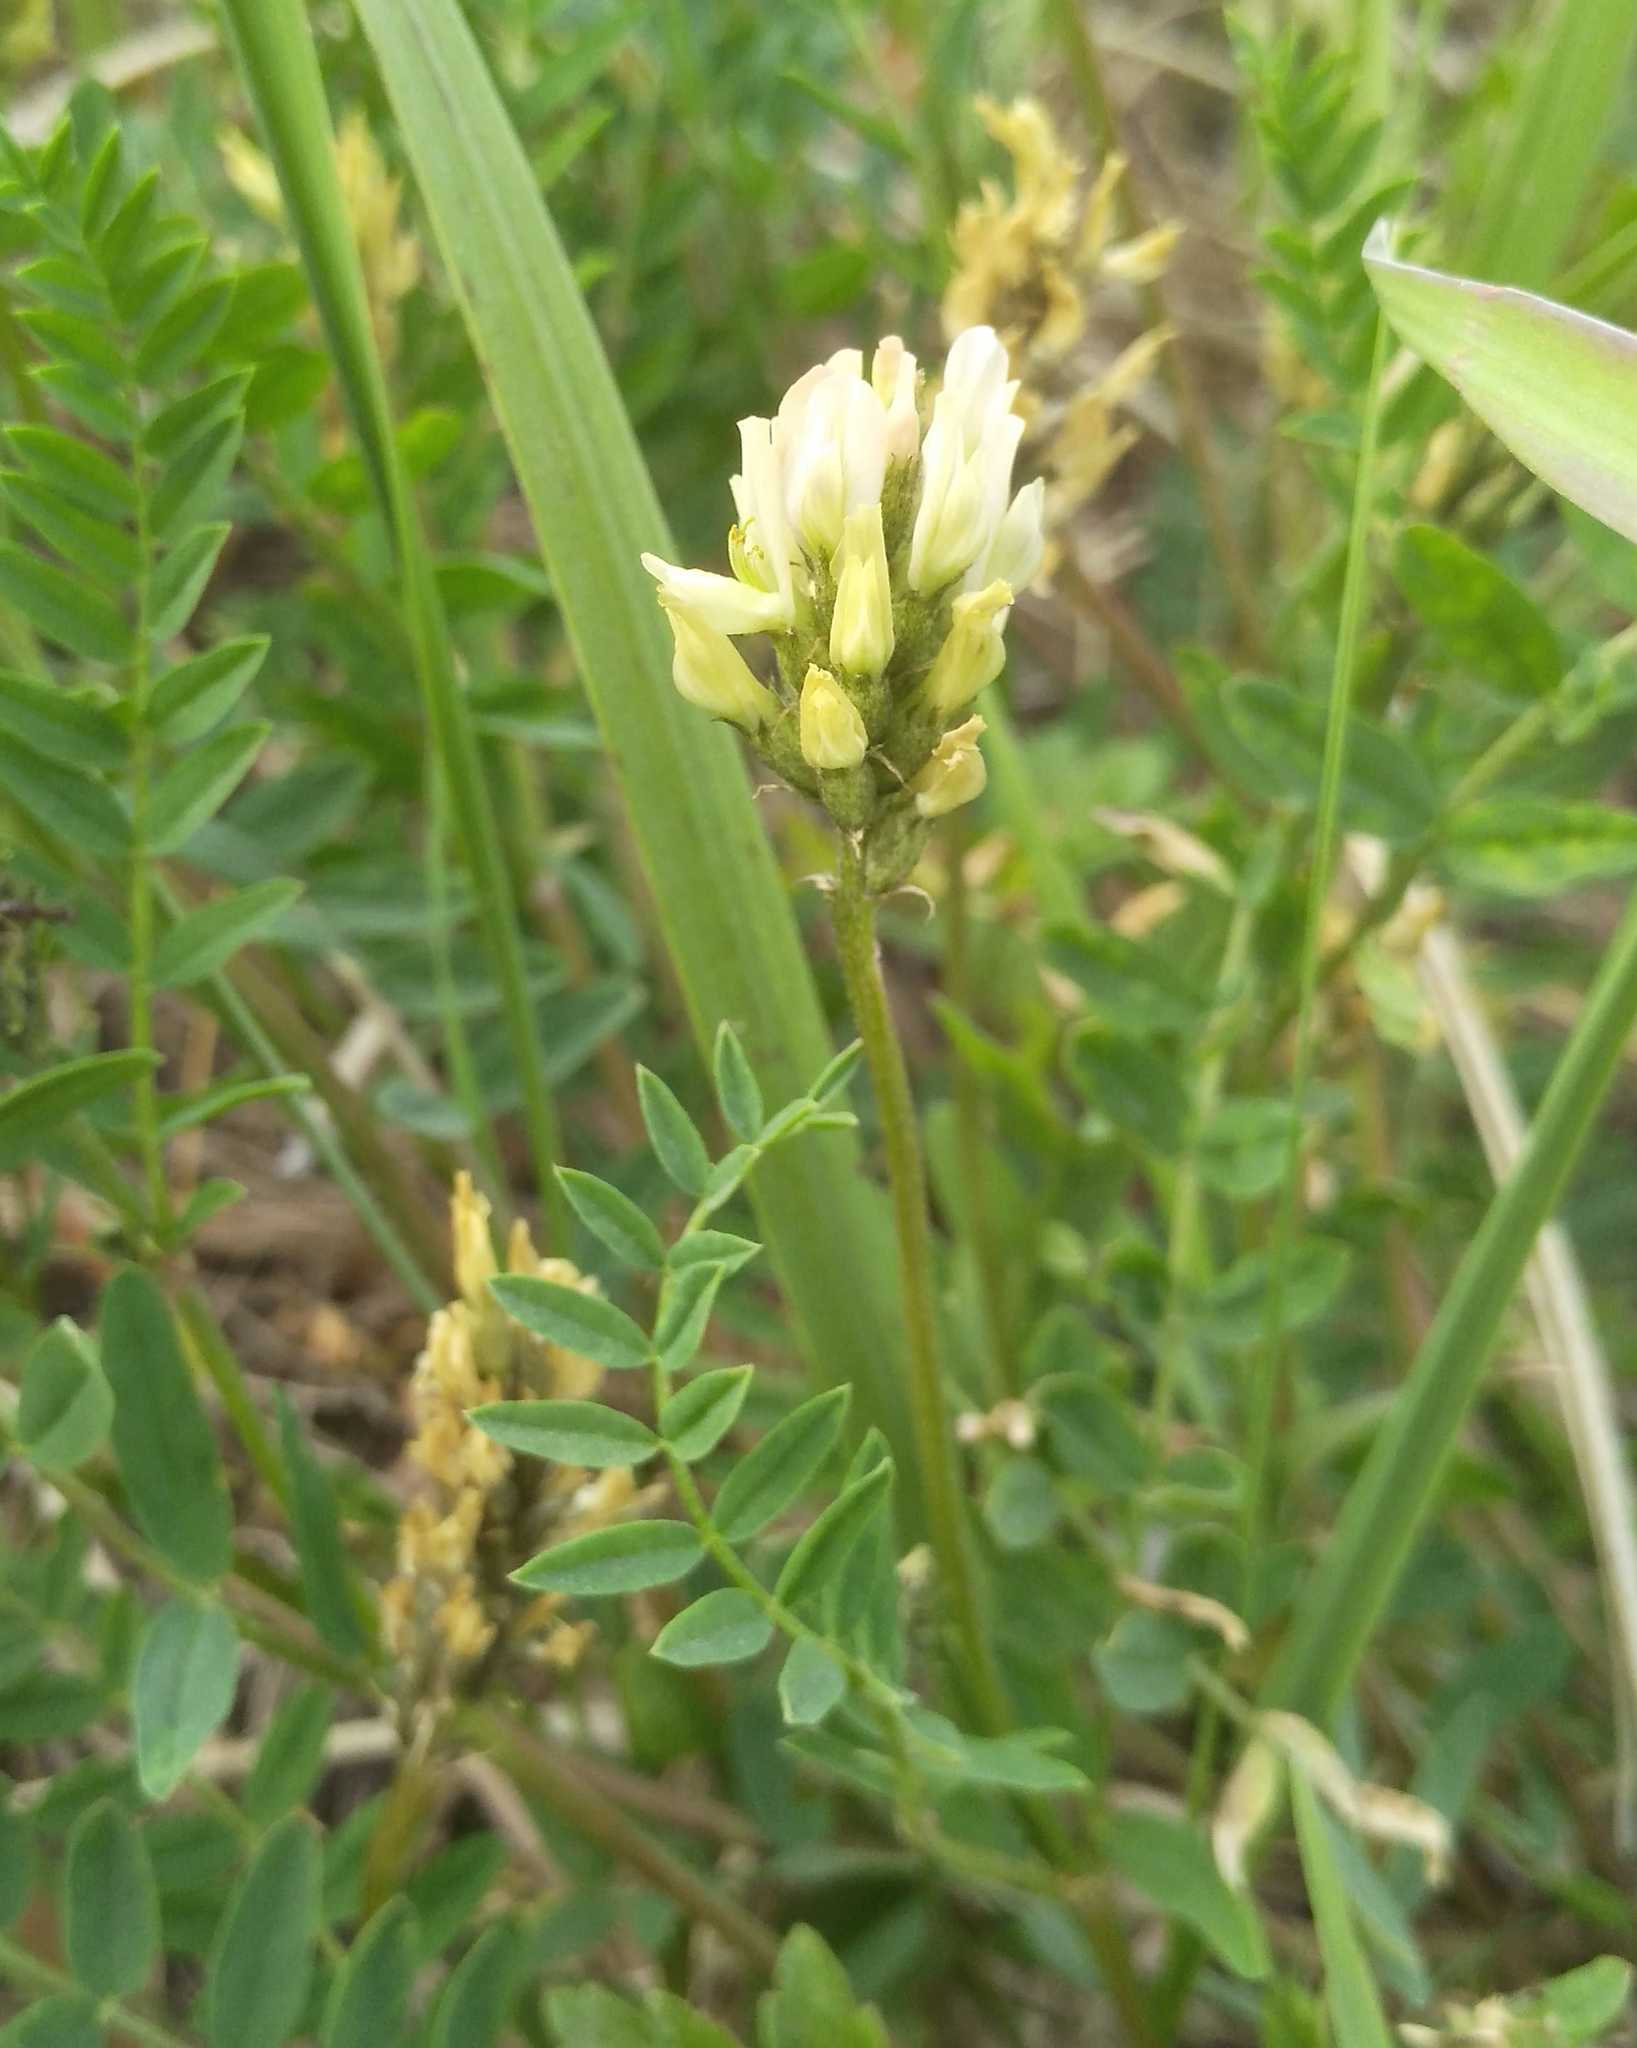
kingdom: Plantae
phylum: Tracheophyta
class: Magnoliopsida
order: Fabales
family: Fabaceae
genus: Astragalus
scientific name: Astragalus laxmannii
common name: Laxmann's milk-vetch
